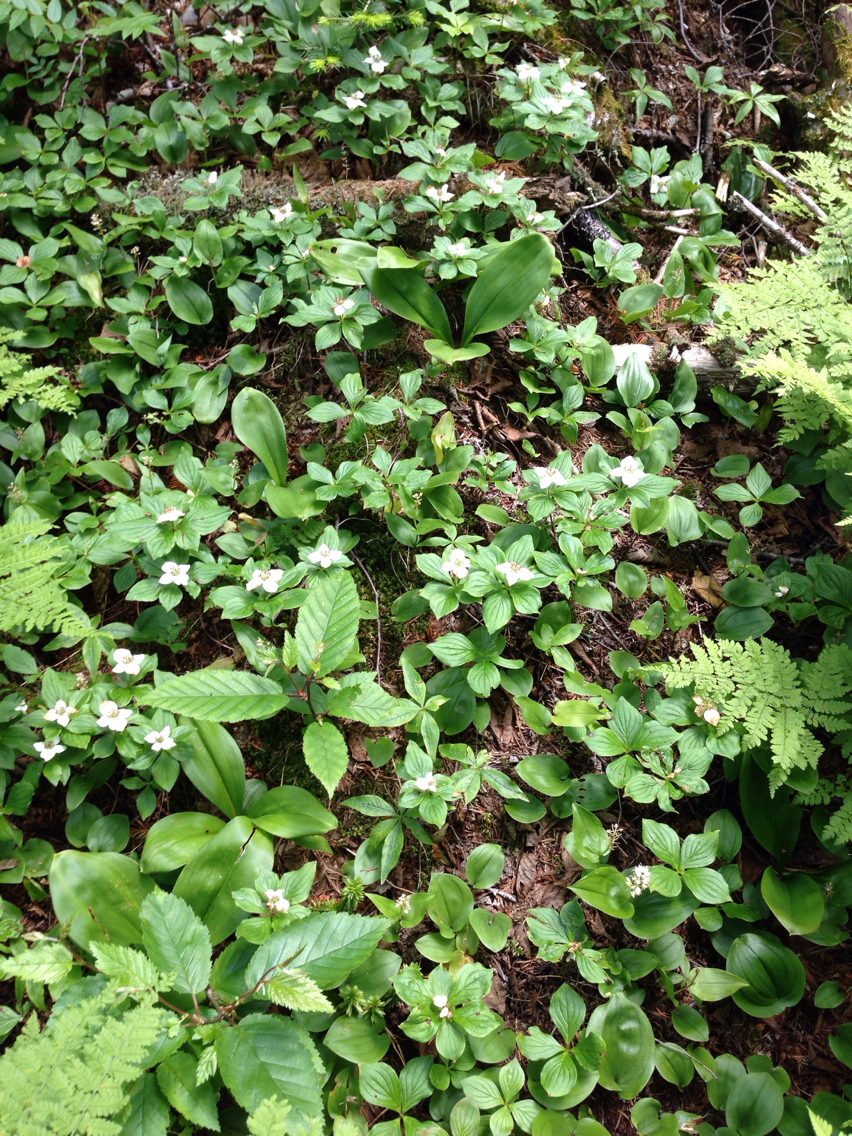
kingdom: Plantae
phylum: Tracheophyta
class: Magnoliopsida
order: Cornales
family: Cornaceae
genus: Cornus
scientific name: Cornus canadensis
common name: Creeping dogwood
